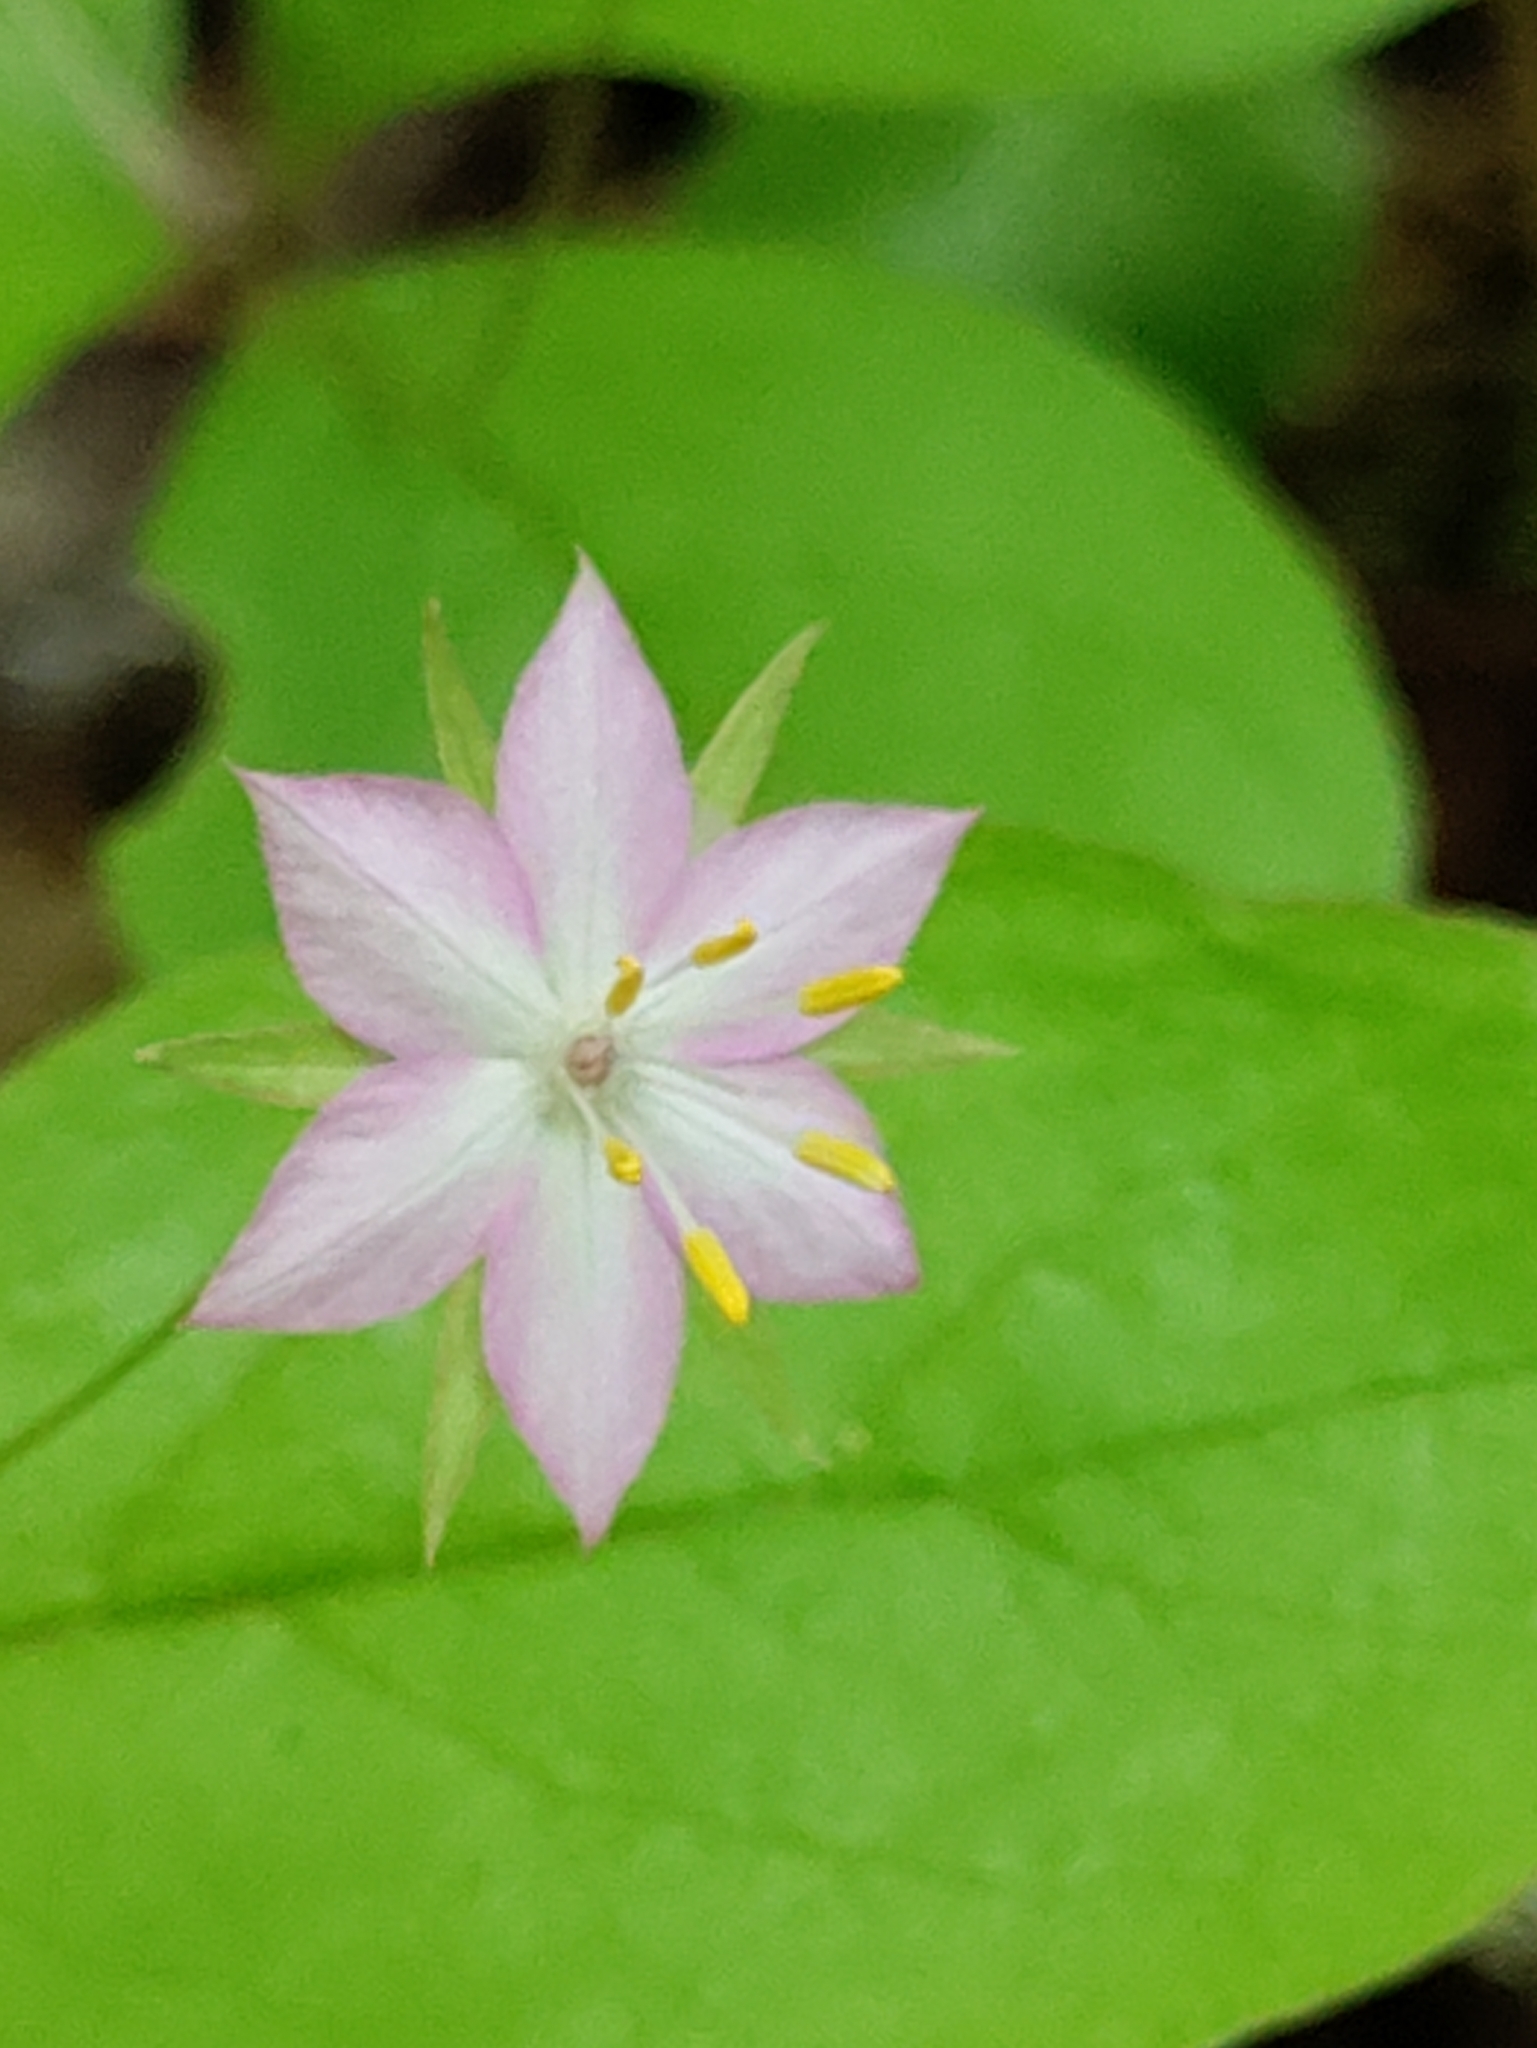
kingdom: Plantae
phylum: Tracheophyta
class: Magnoliopsida
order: Ericales
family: Primulaceae
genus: Lysimachia
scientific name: Lysimachia latifolia
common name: Pacific starflower
